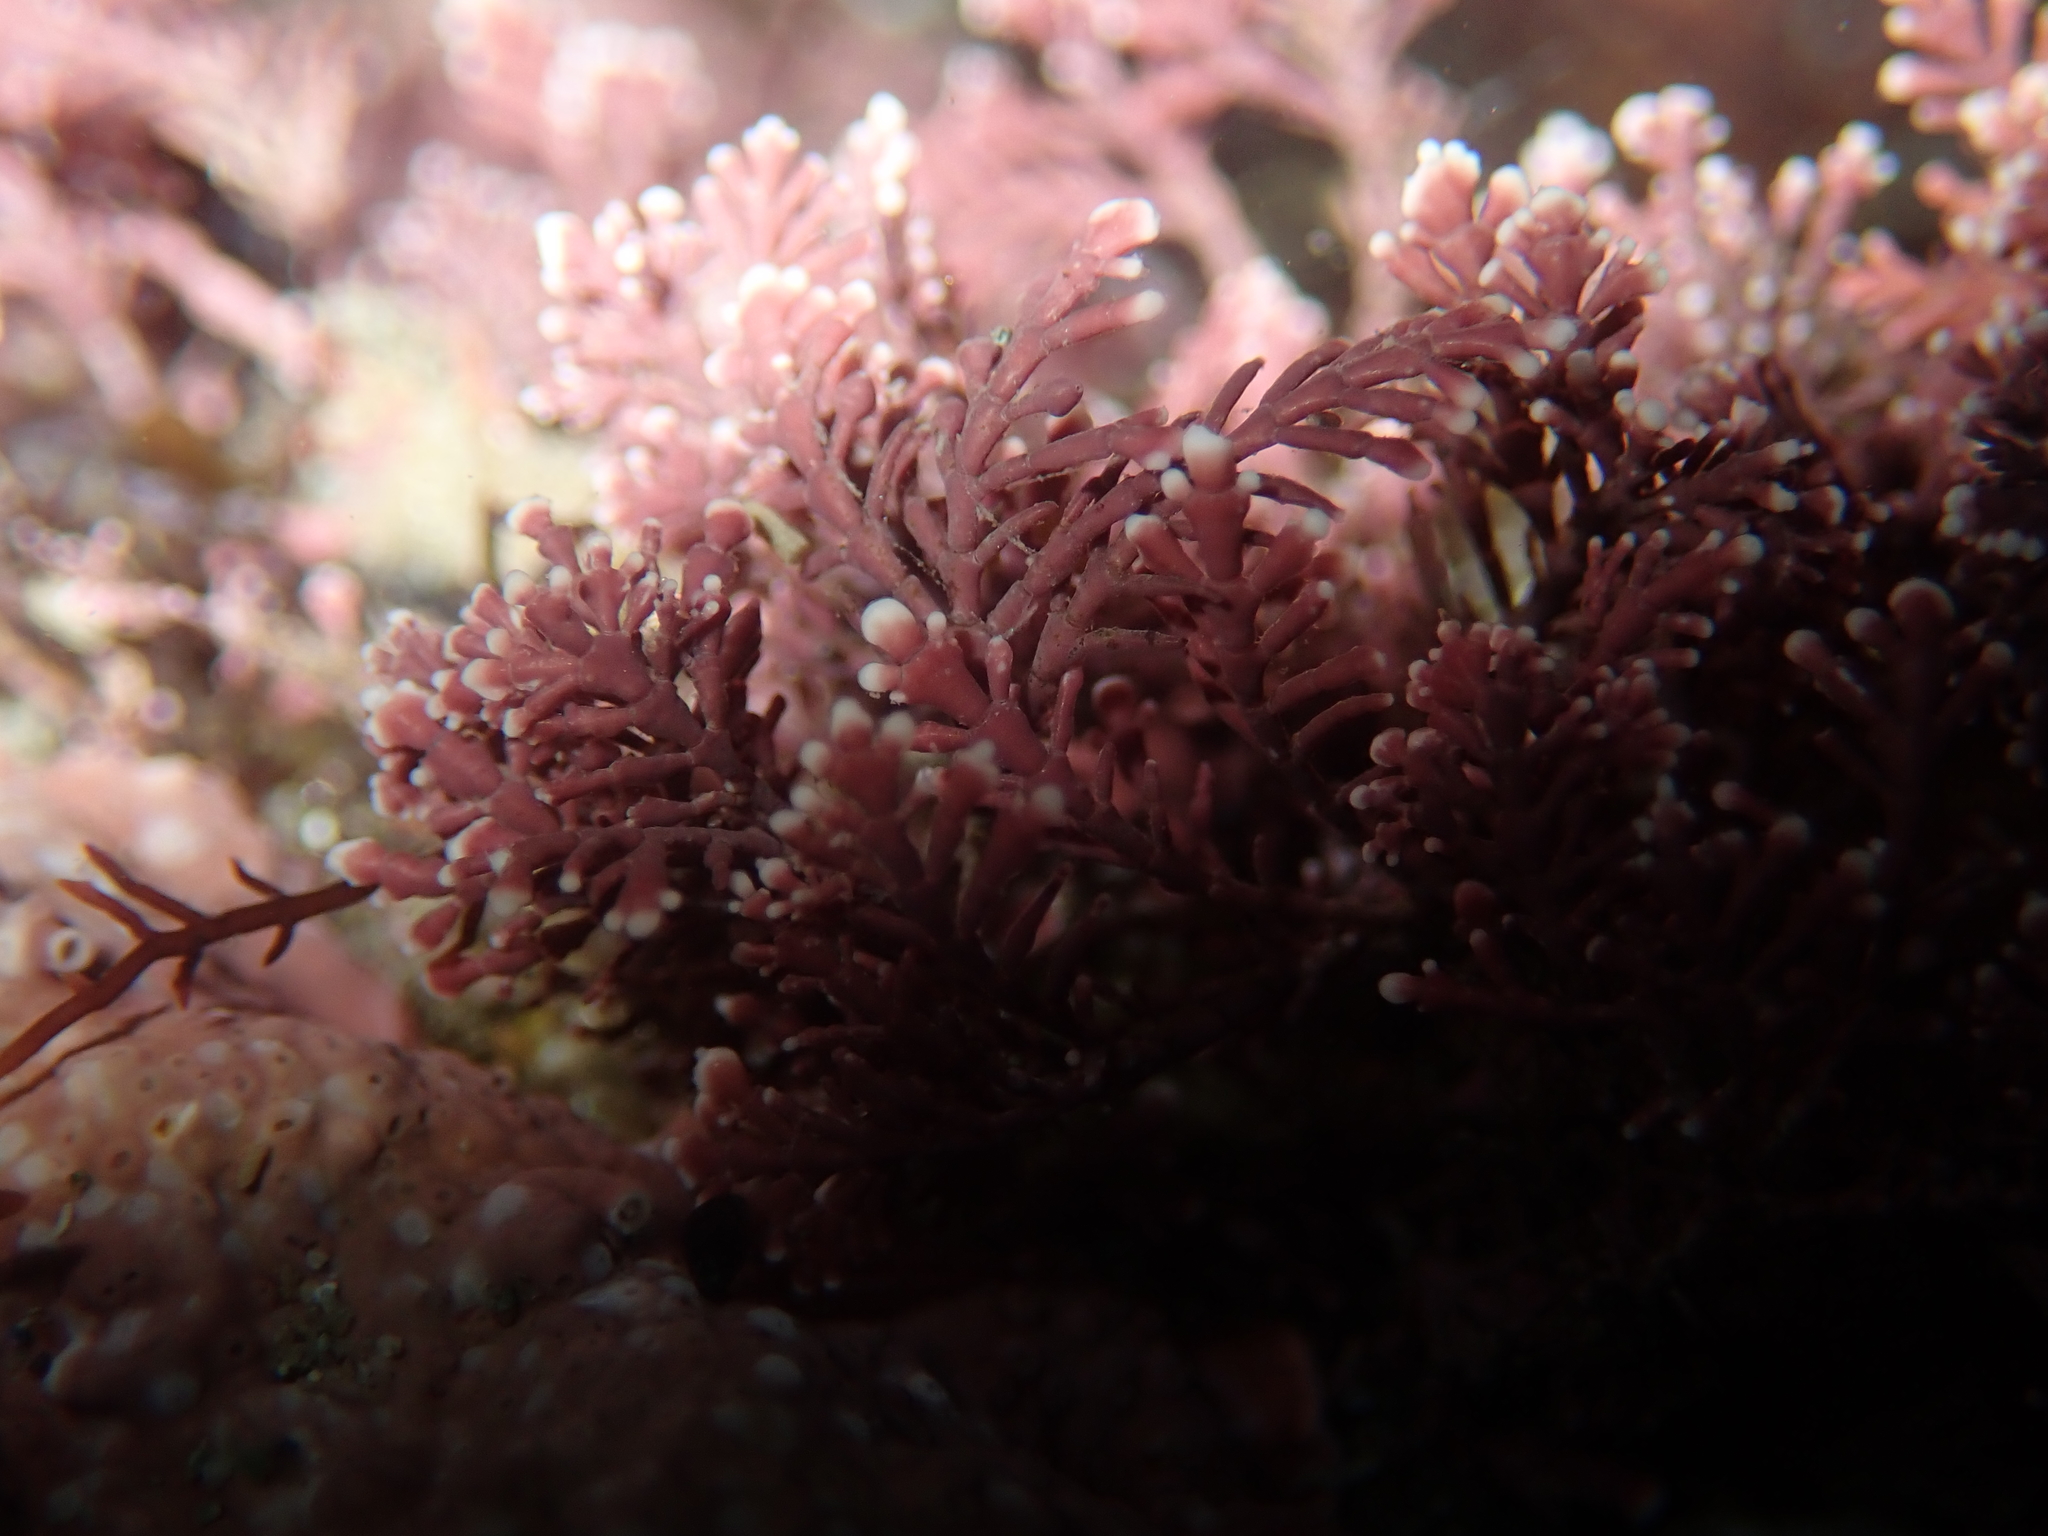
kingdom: Plantae
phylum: Rhodophyta
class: Florideophyceae
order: Corallinales
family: Corallinaceae
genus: Corallina
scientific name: Corallina officinalis
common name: Coral weed
